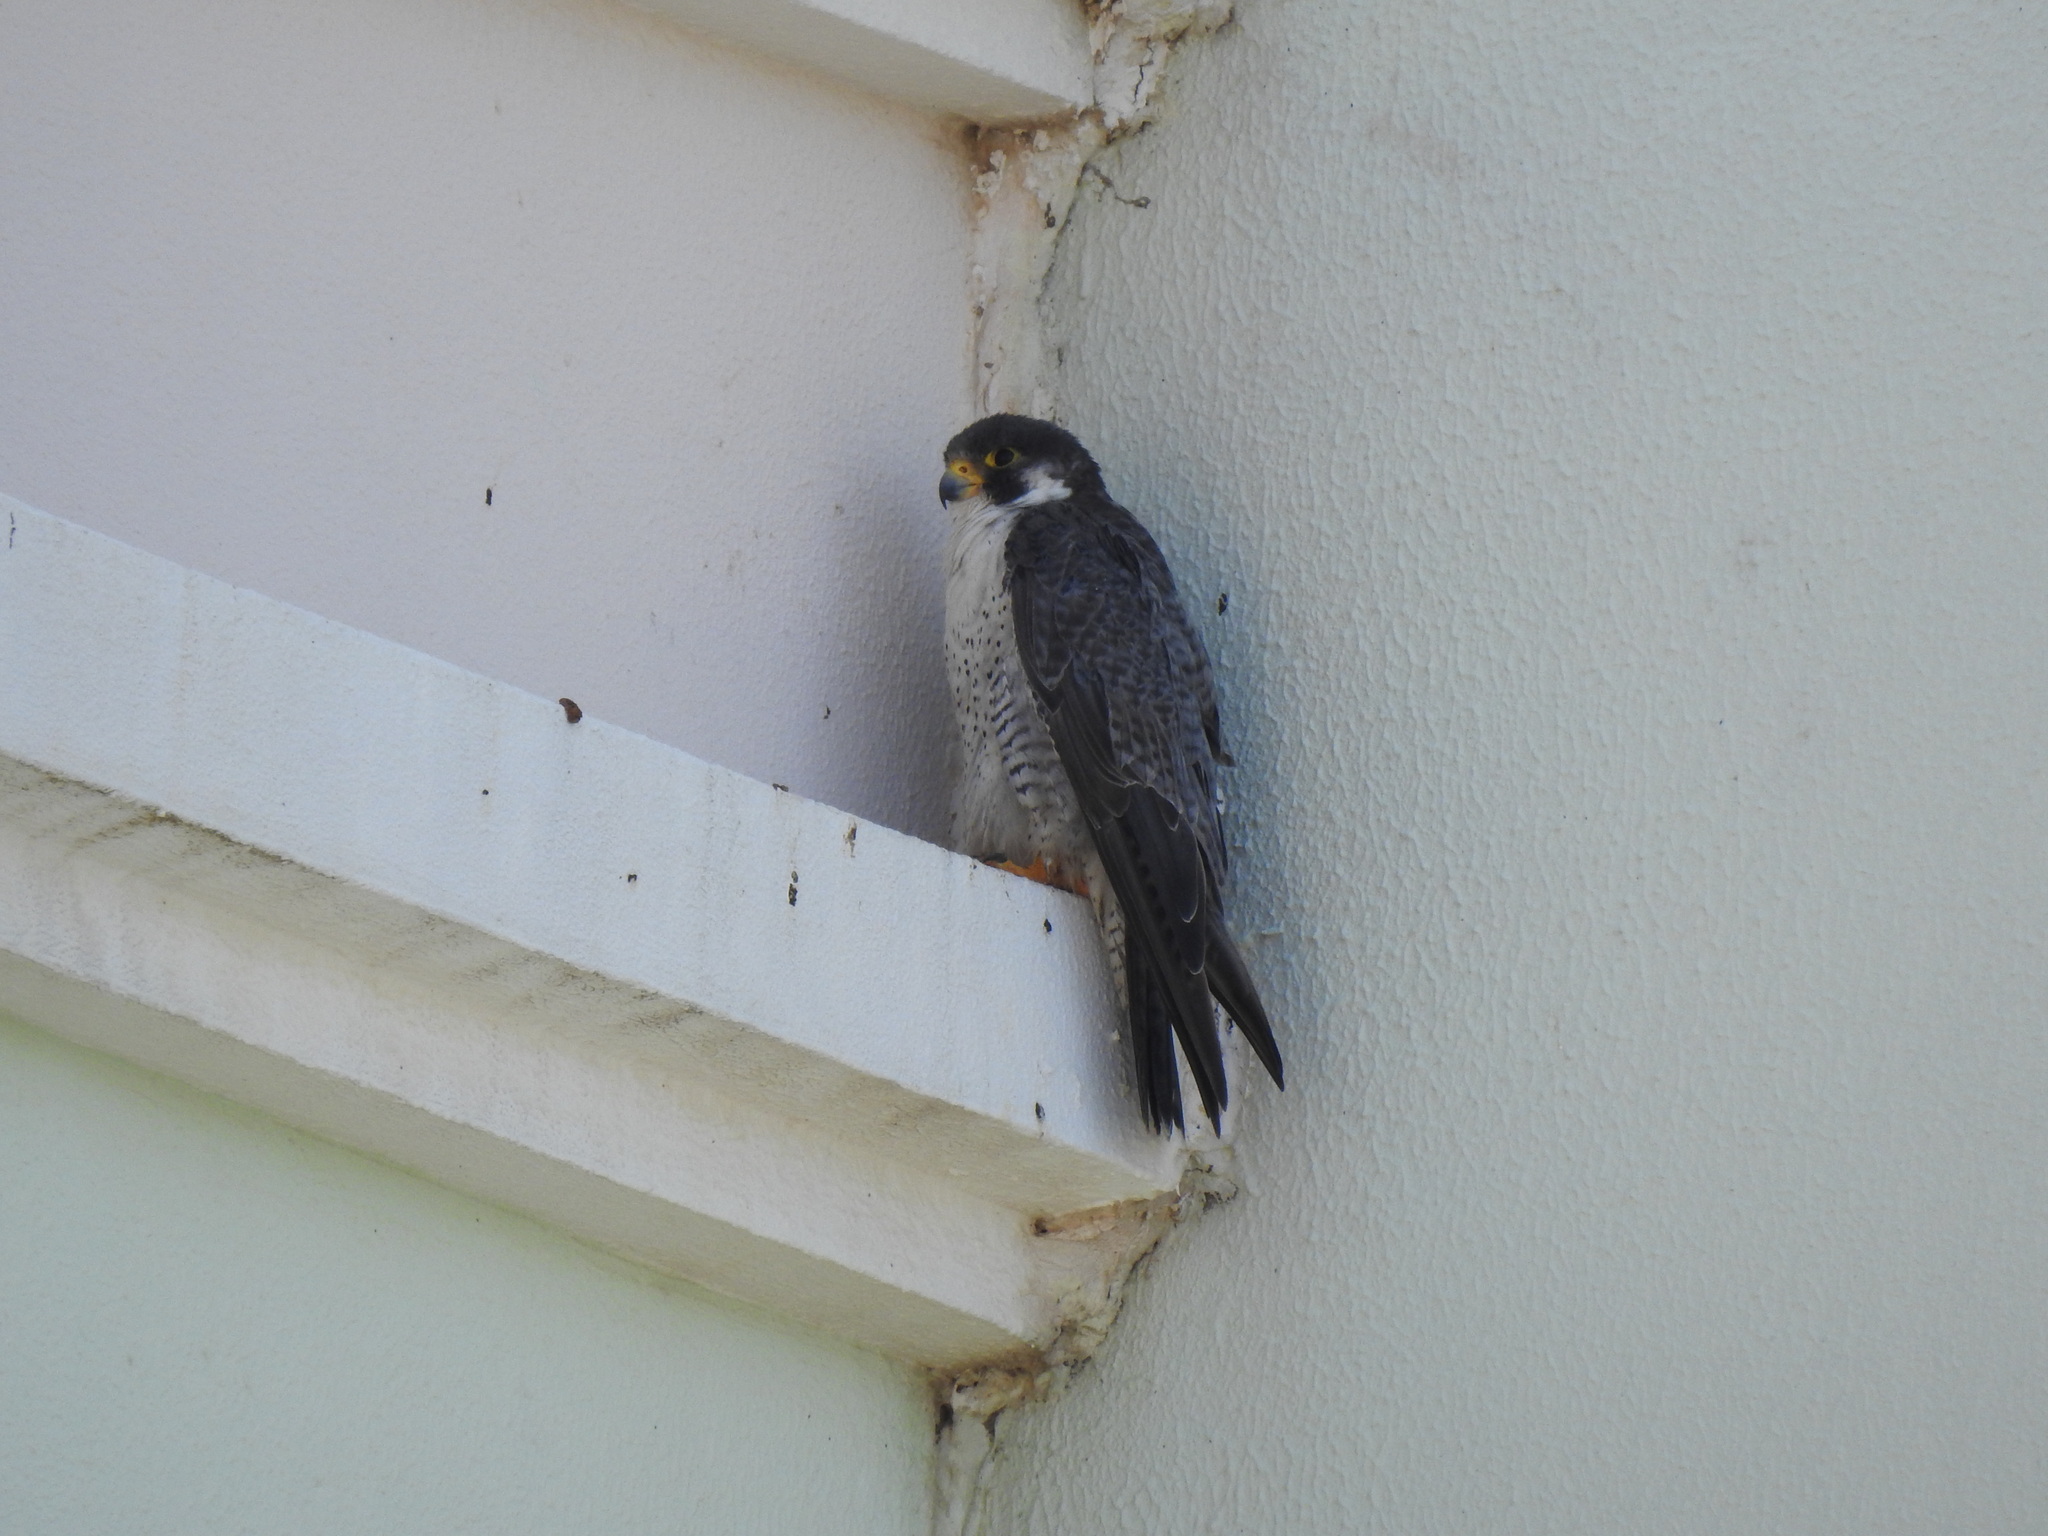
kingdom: Animalia
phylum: Chordata
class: Aves
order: Falconiformes
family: Falconidae
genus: Falco
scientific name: Falco peregrinus
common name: Peregrine falcon
